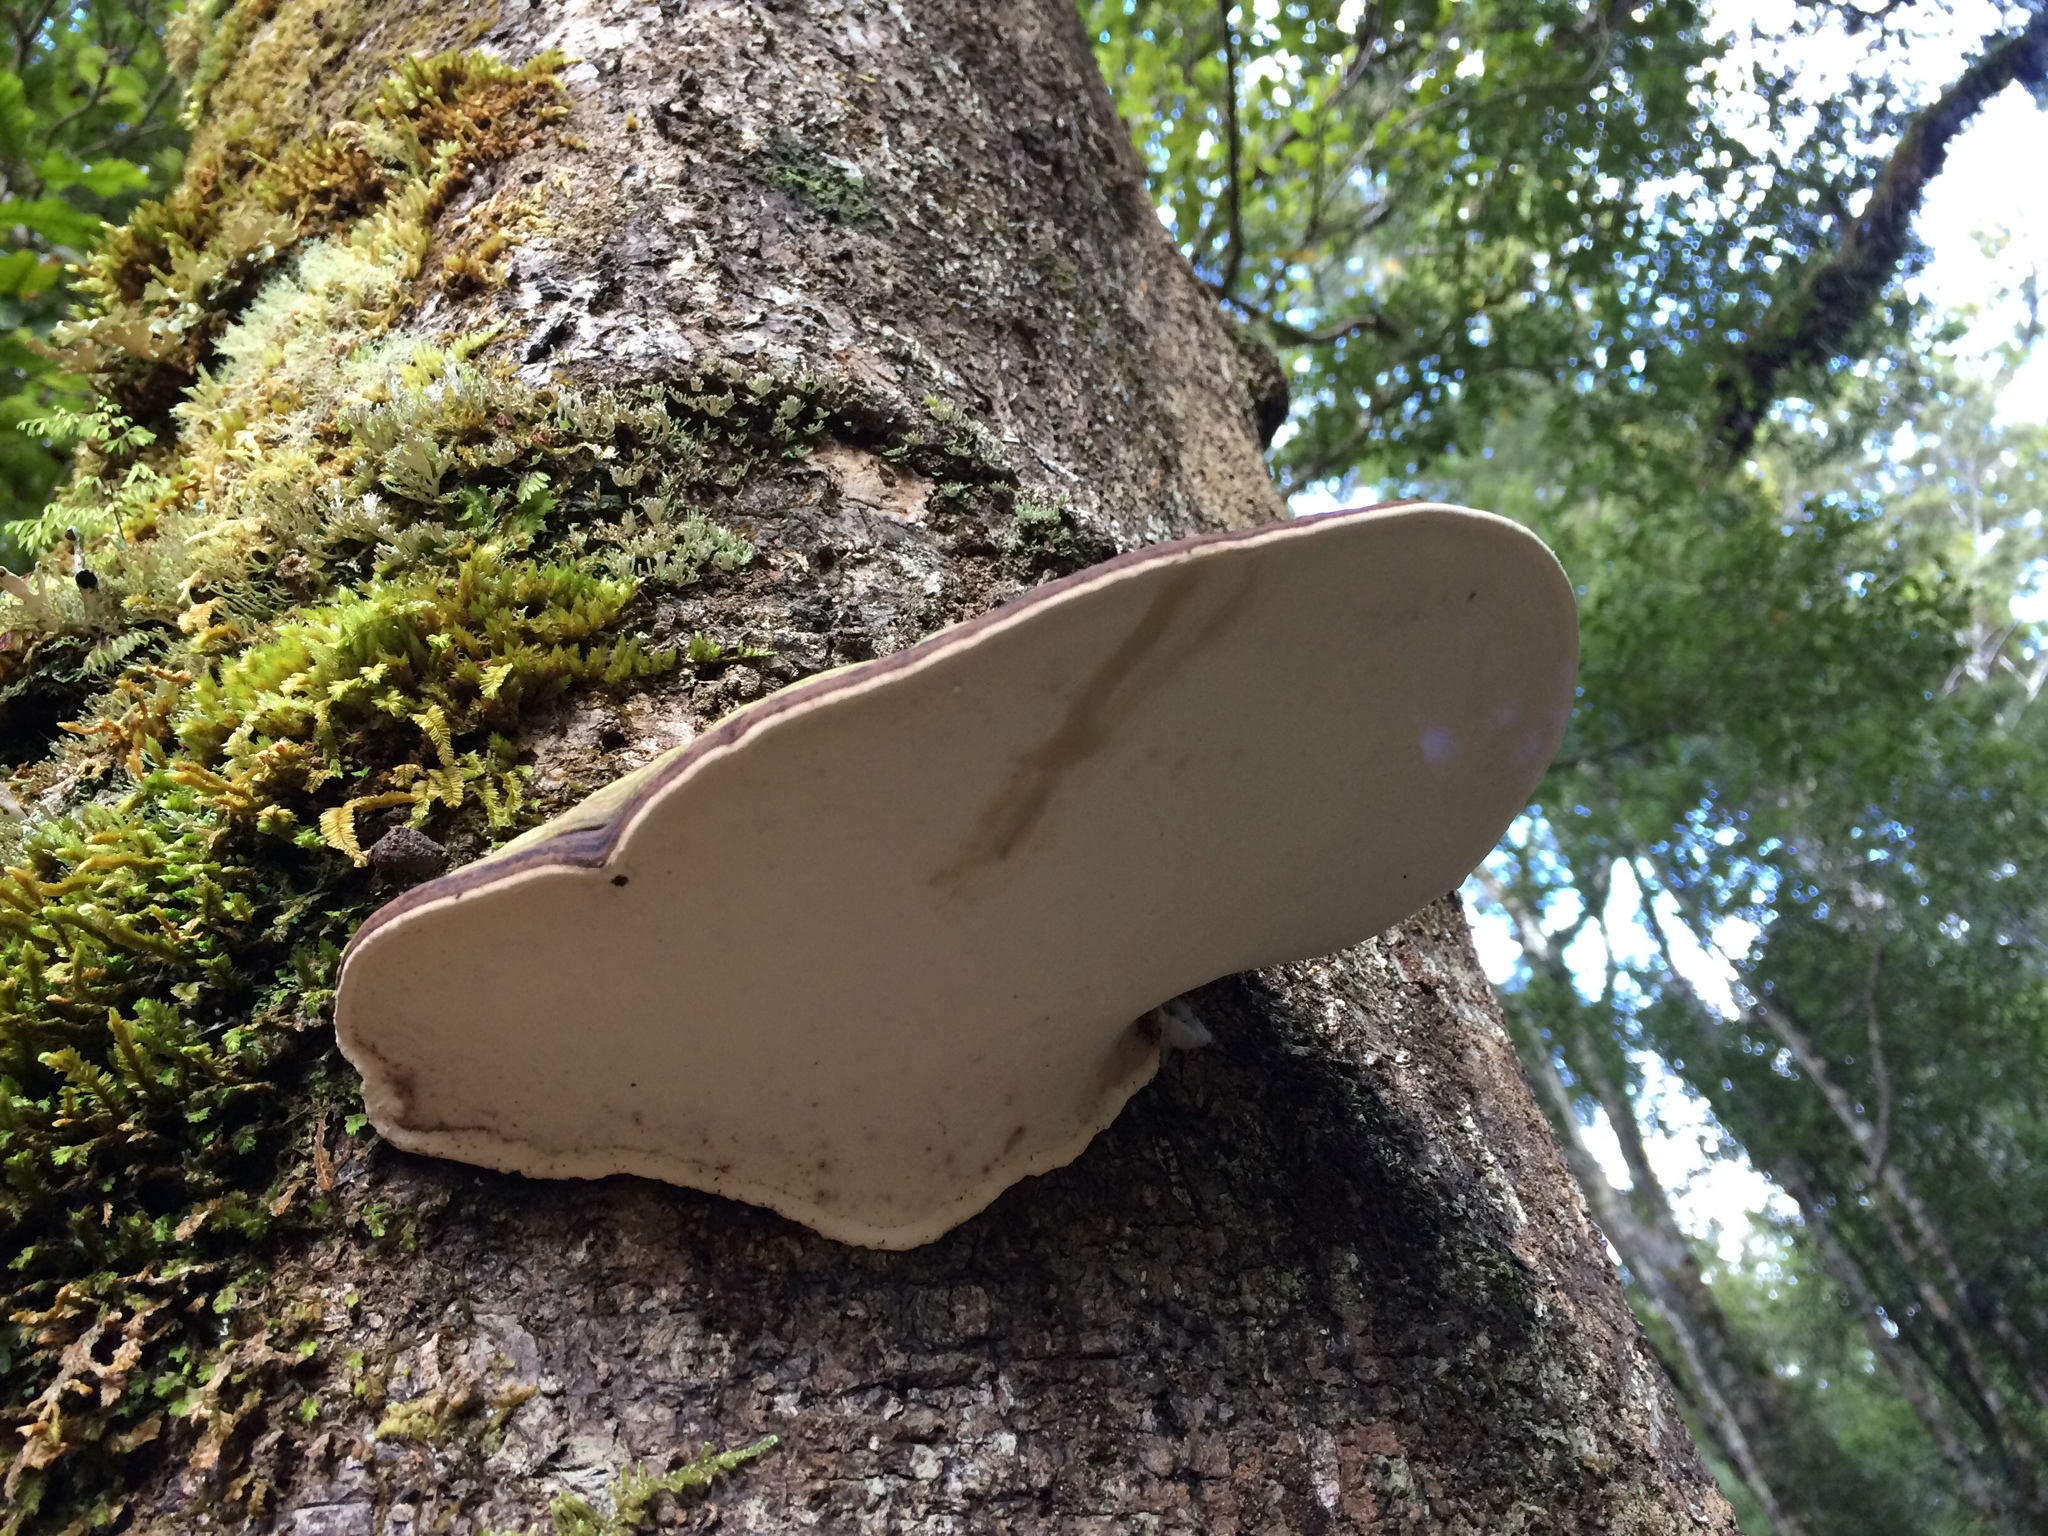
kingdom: Fungi
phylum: Basidiomycota
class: Agaricomycetes
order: Polyporales
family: Fomitopsidaceae
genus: Pilatoporus
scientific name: Pilatoporus hemitephrus
